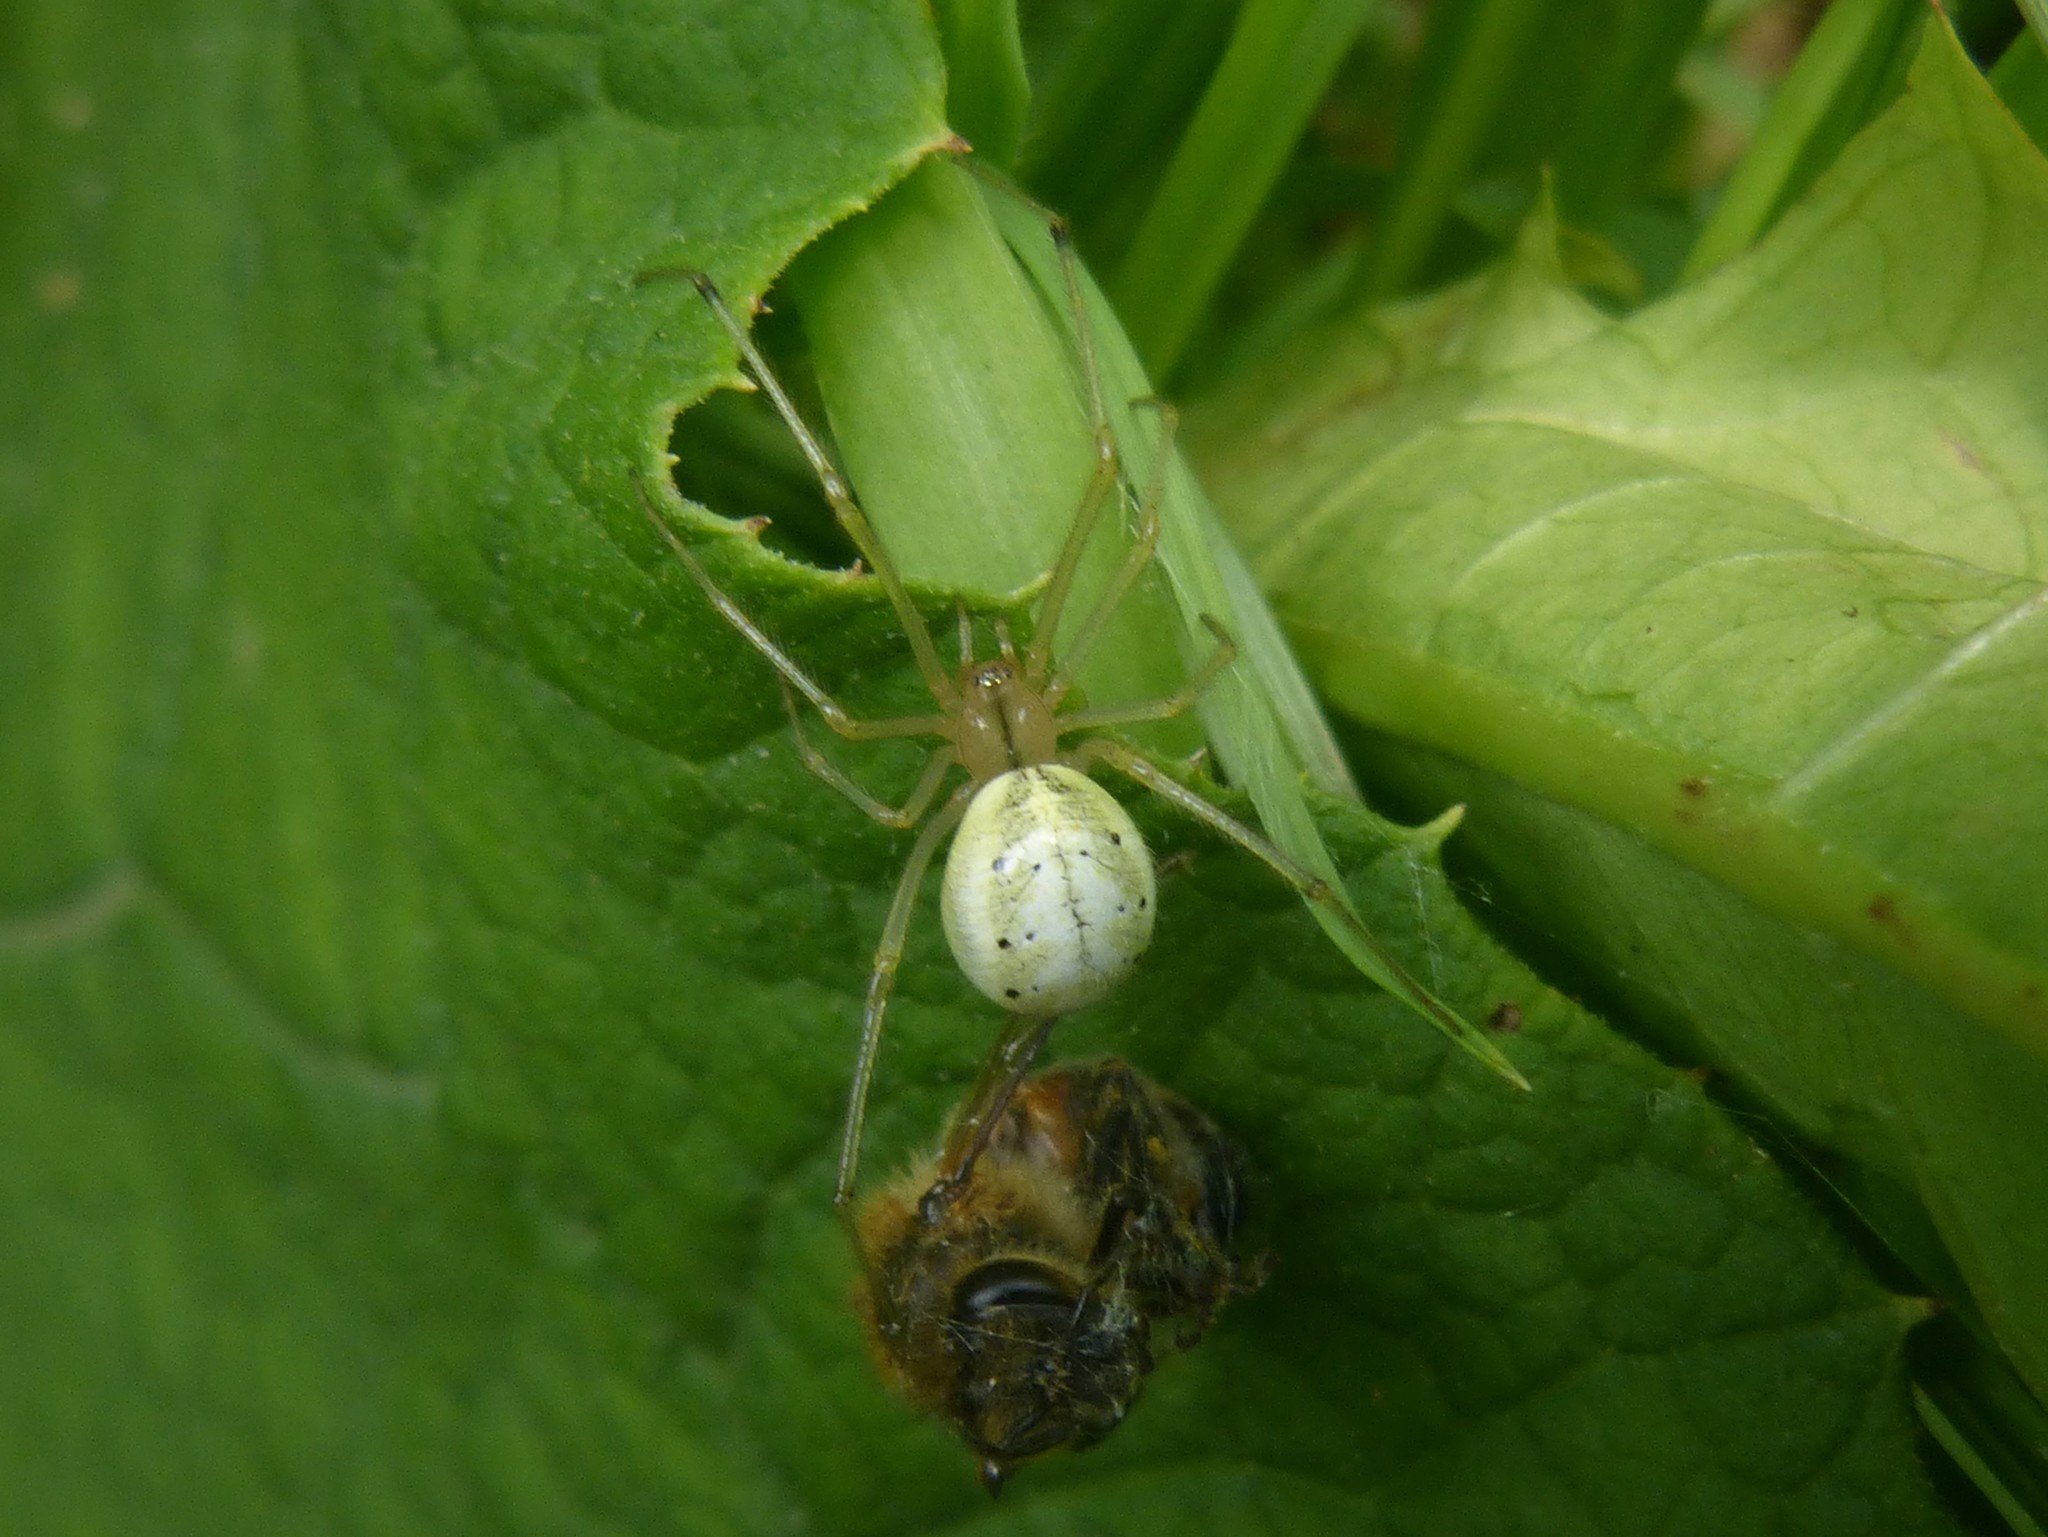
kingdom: Animalia
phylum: Arthropoda
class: Arachnida
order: Araneae
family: Theridiidae
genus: Enoplognatha
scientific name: Enoplognatha ovata
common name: Common candy-striped spider
